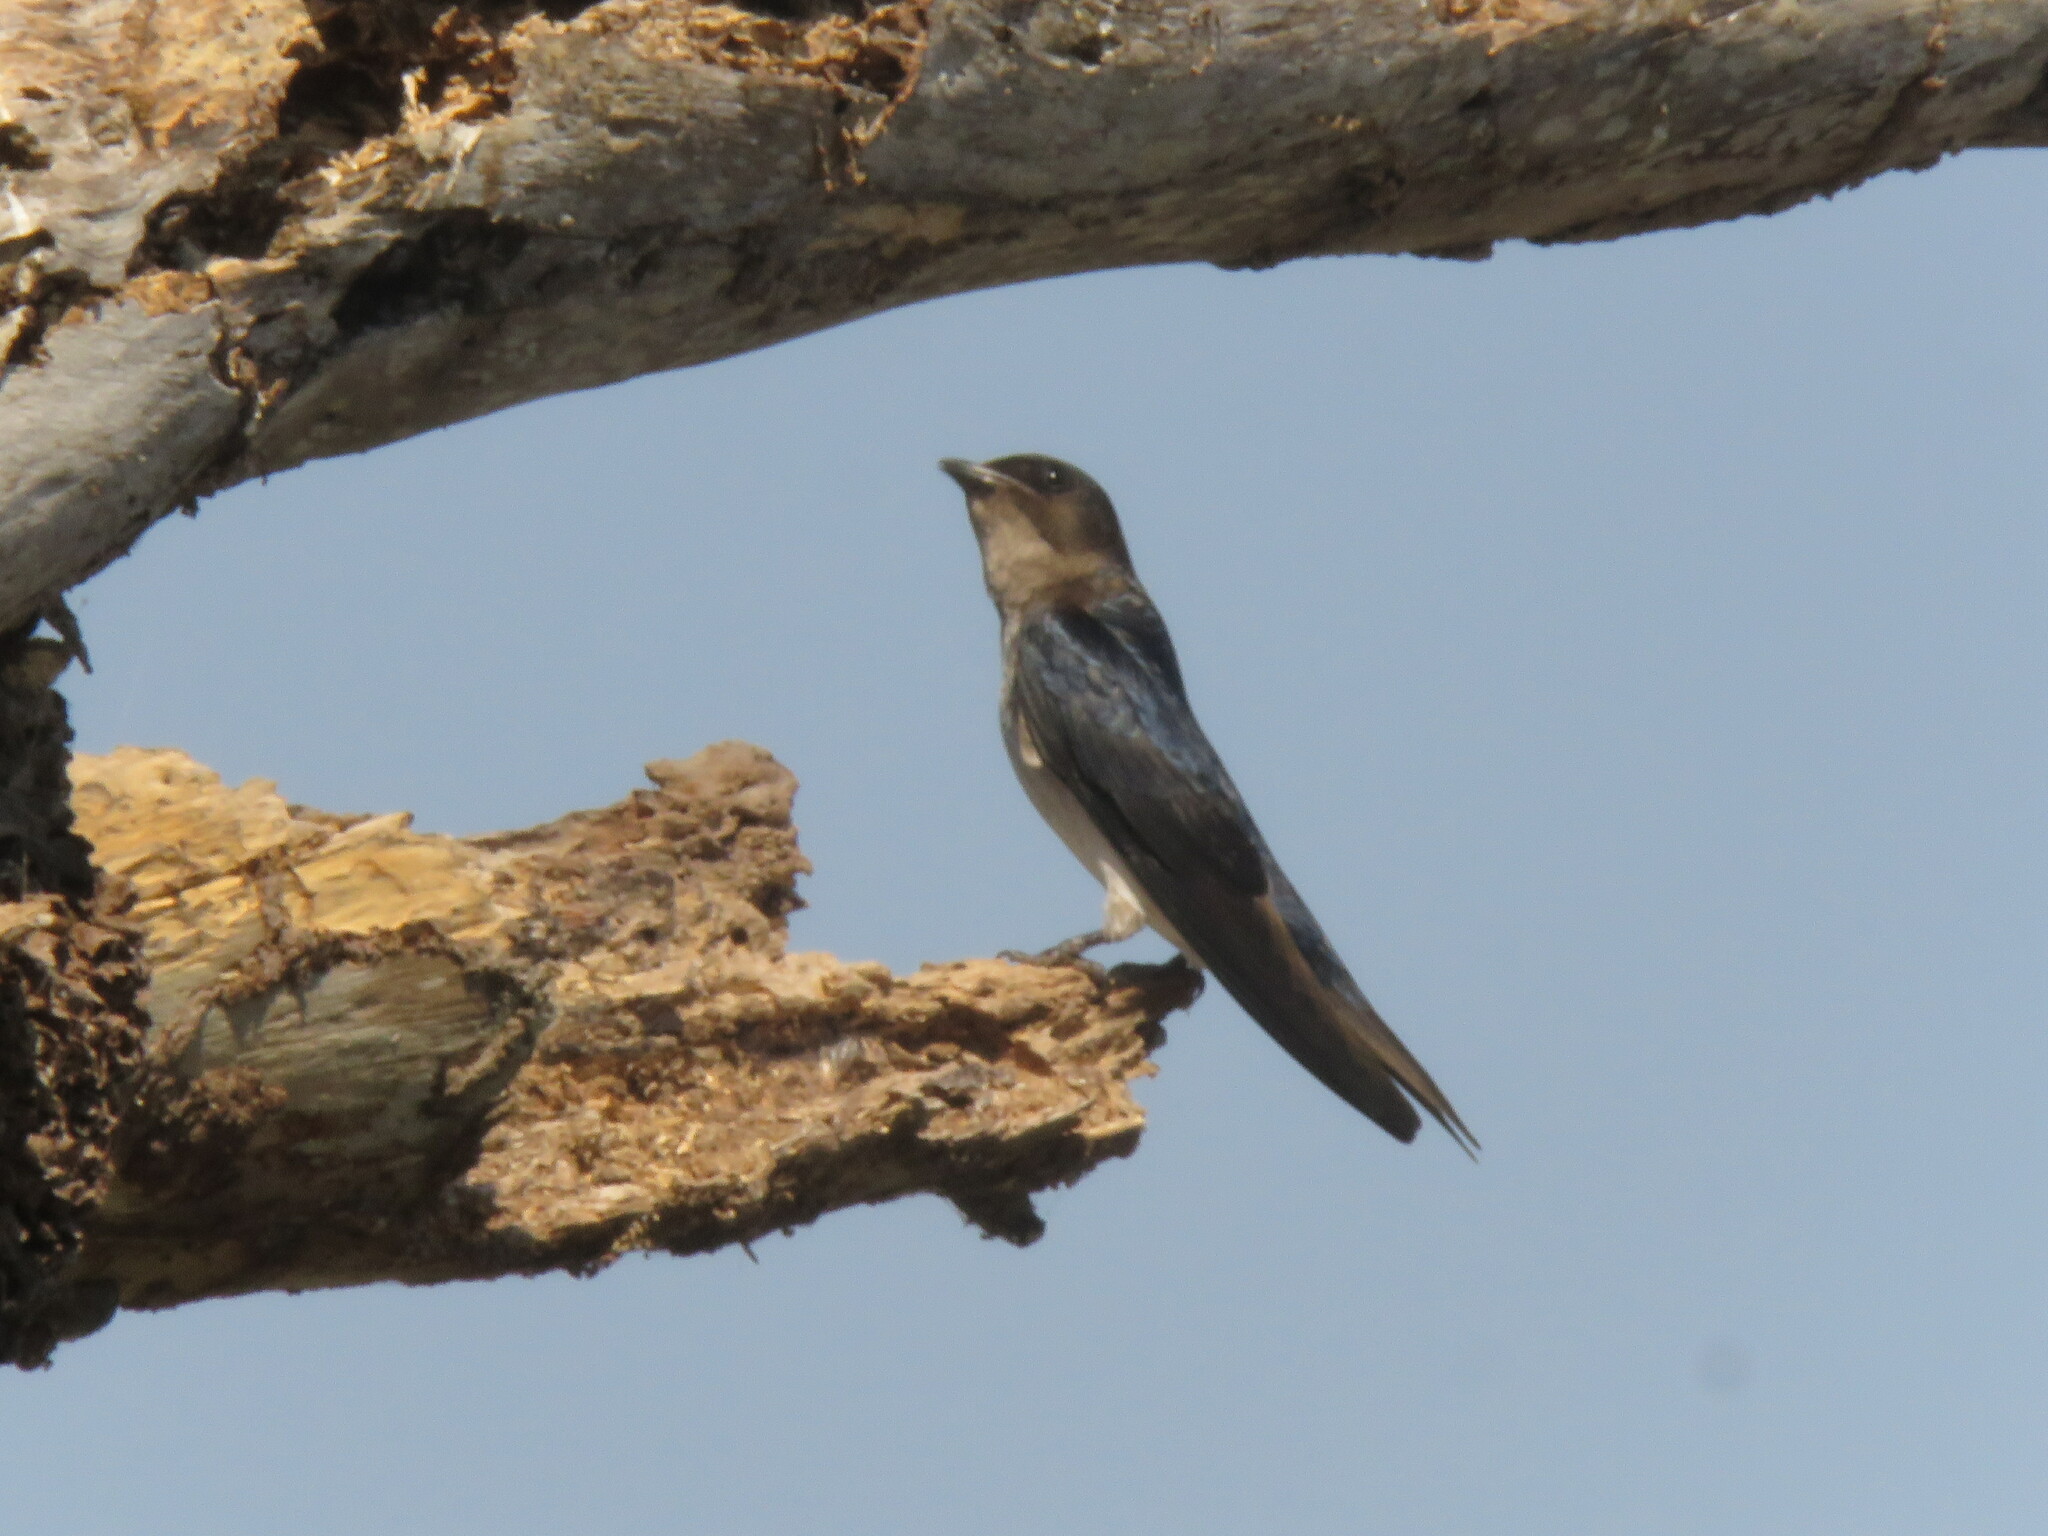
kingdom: Animalia
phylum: Chordata
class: Aves
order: Passeriformes
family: Hirundinidae
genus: Progne
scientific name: Progne chalybea
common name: Grey-breasted martin
